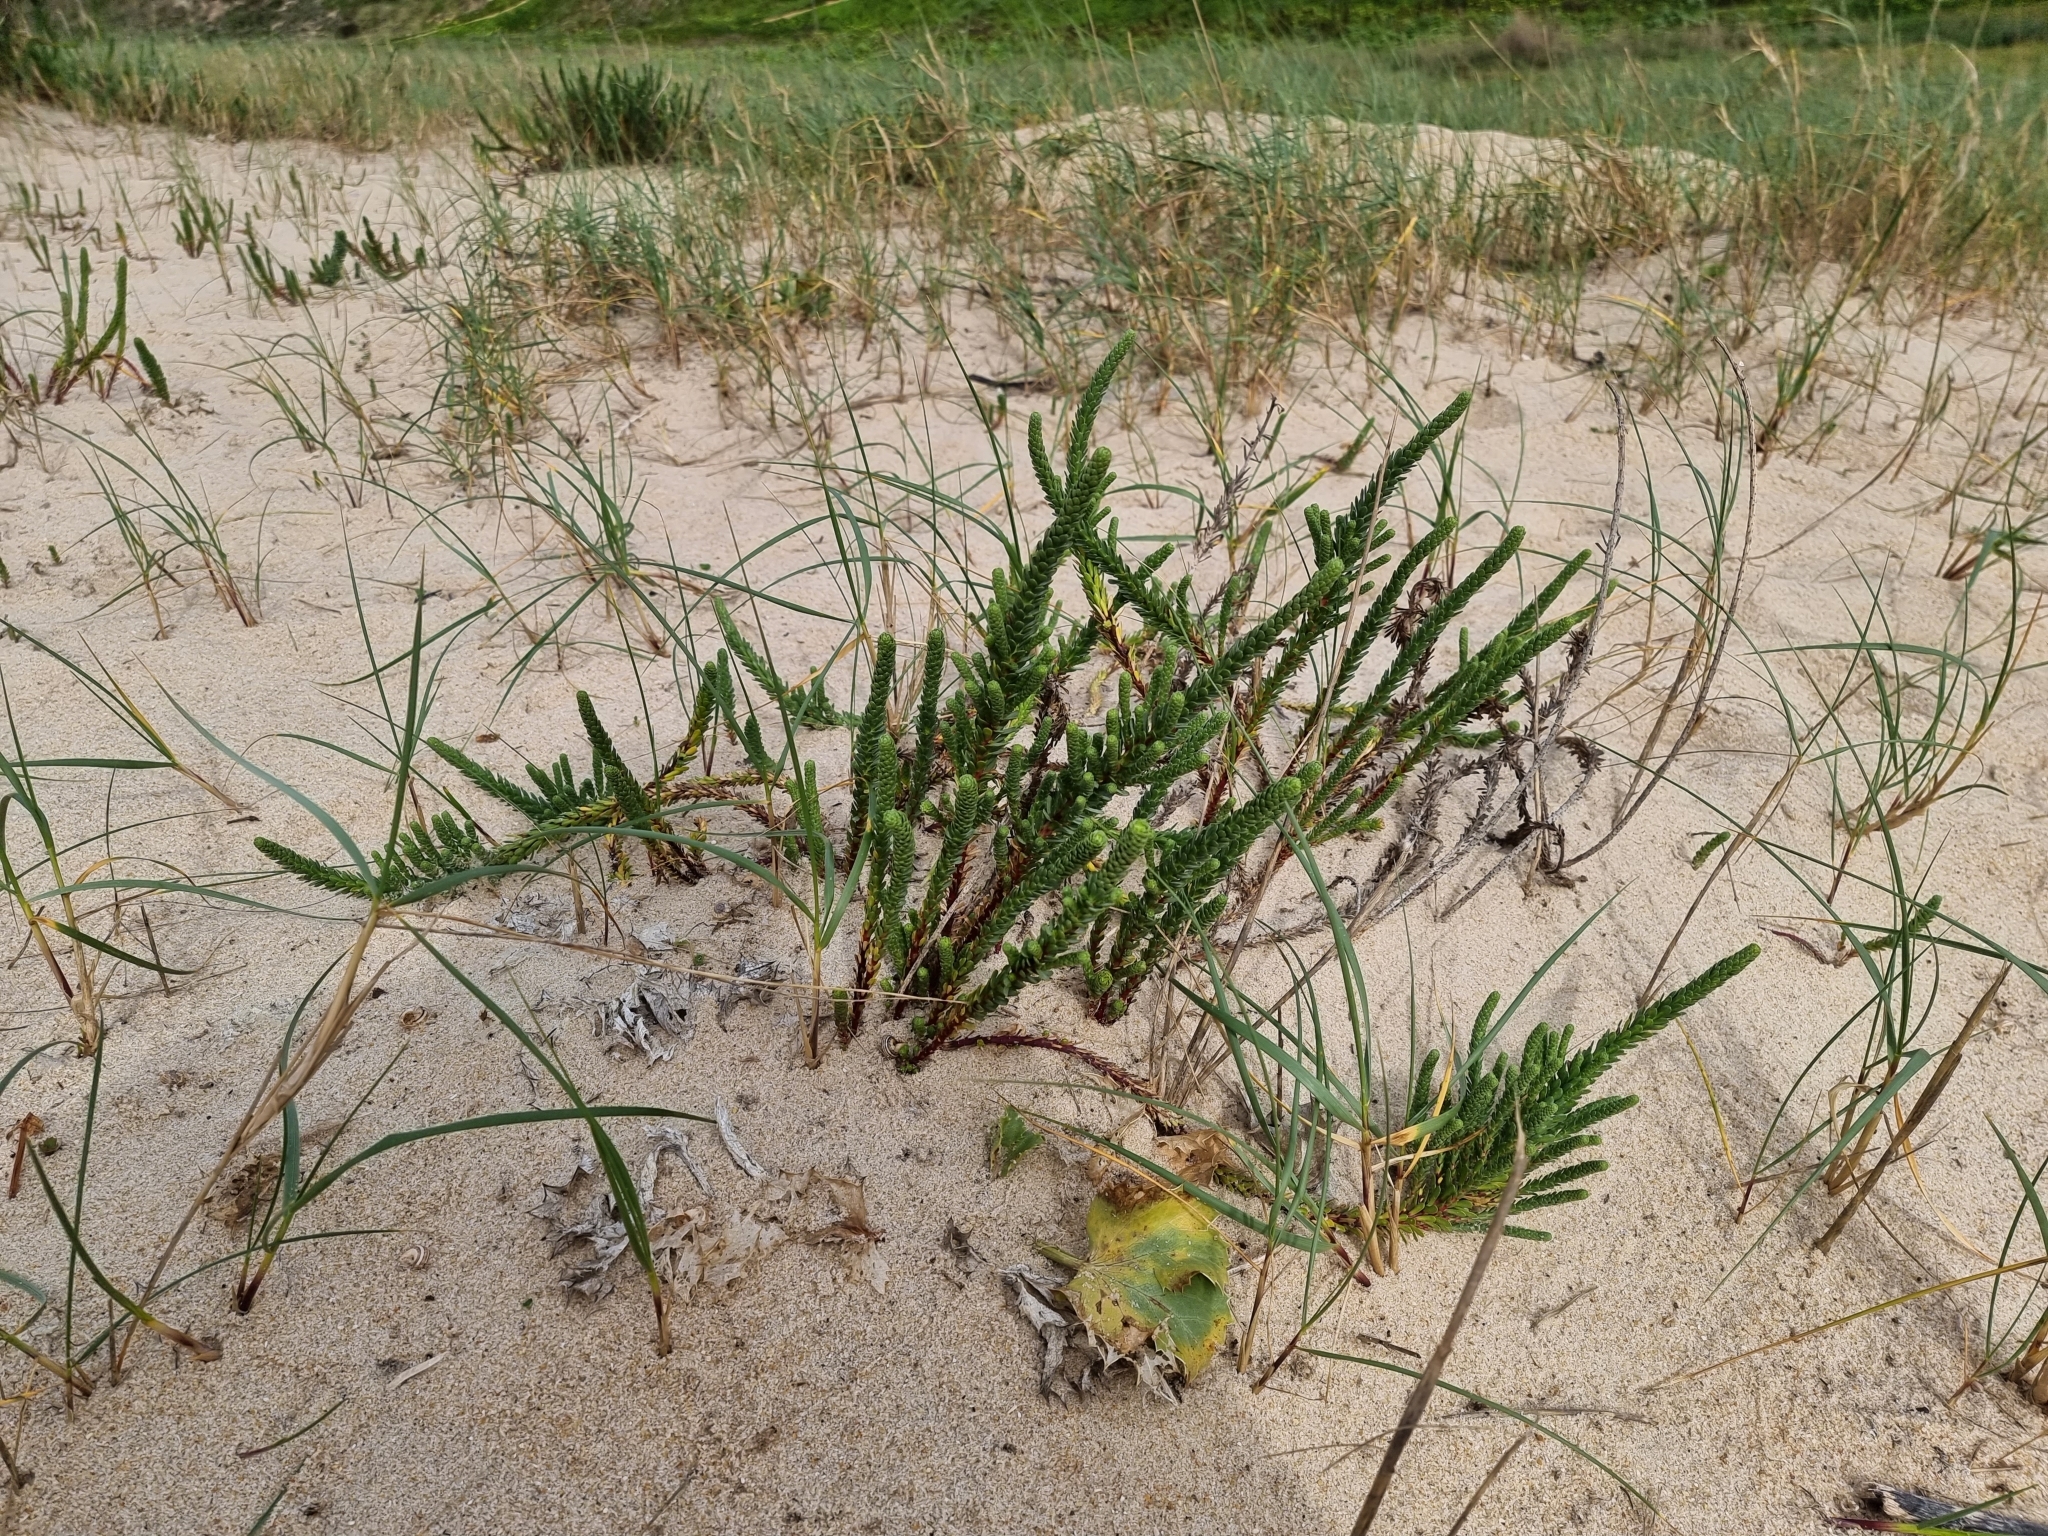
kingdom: Plantae
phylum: Tracheophyta
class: Magnoliopsida
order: Malpighiales
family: Euphorbiaceae
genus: Euphorbia
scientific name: Euphorbia paralias
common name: Sea spurge
